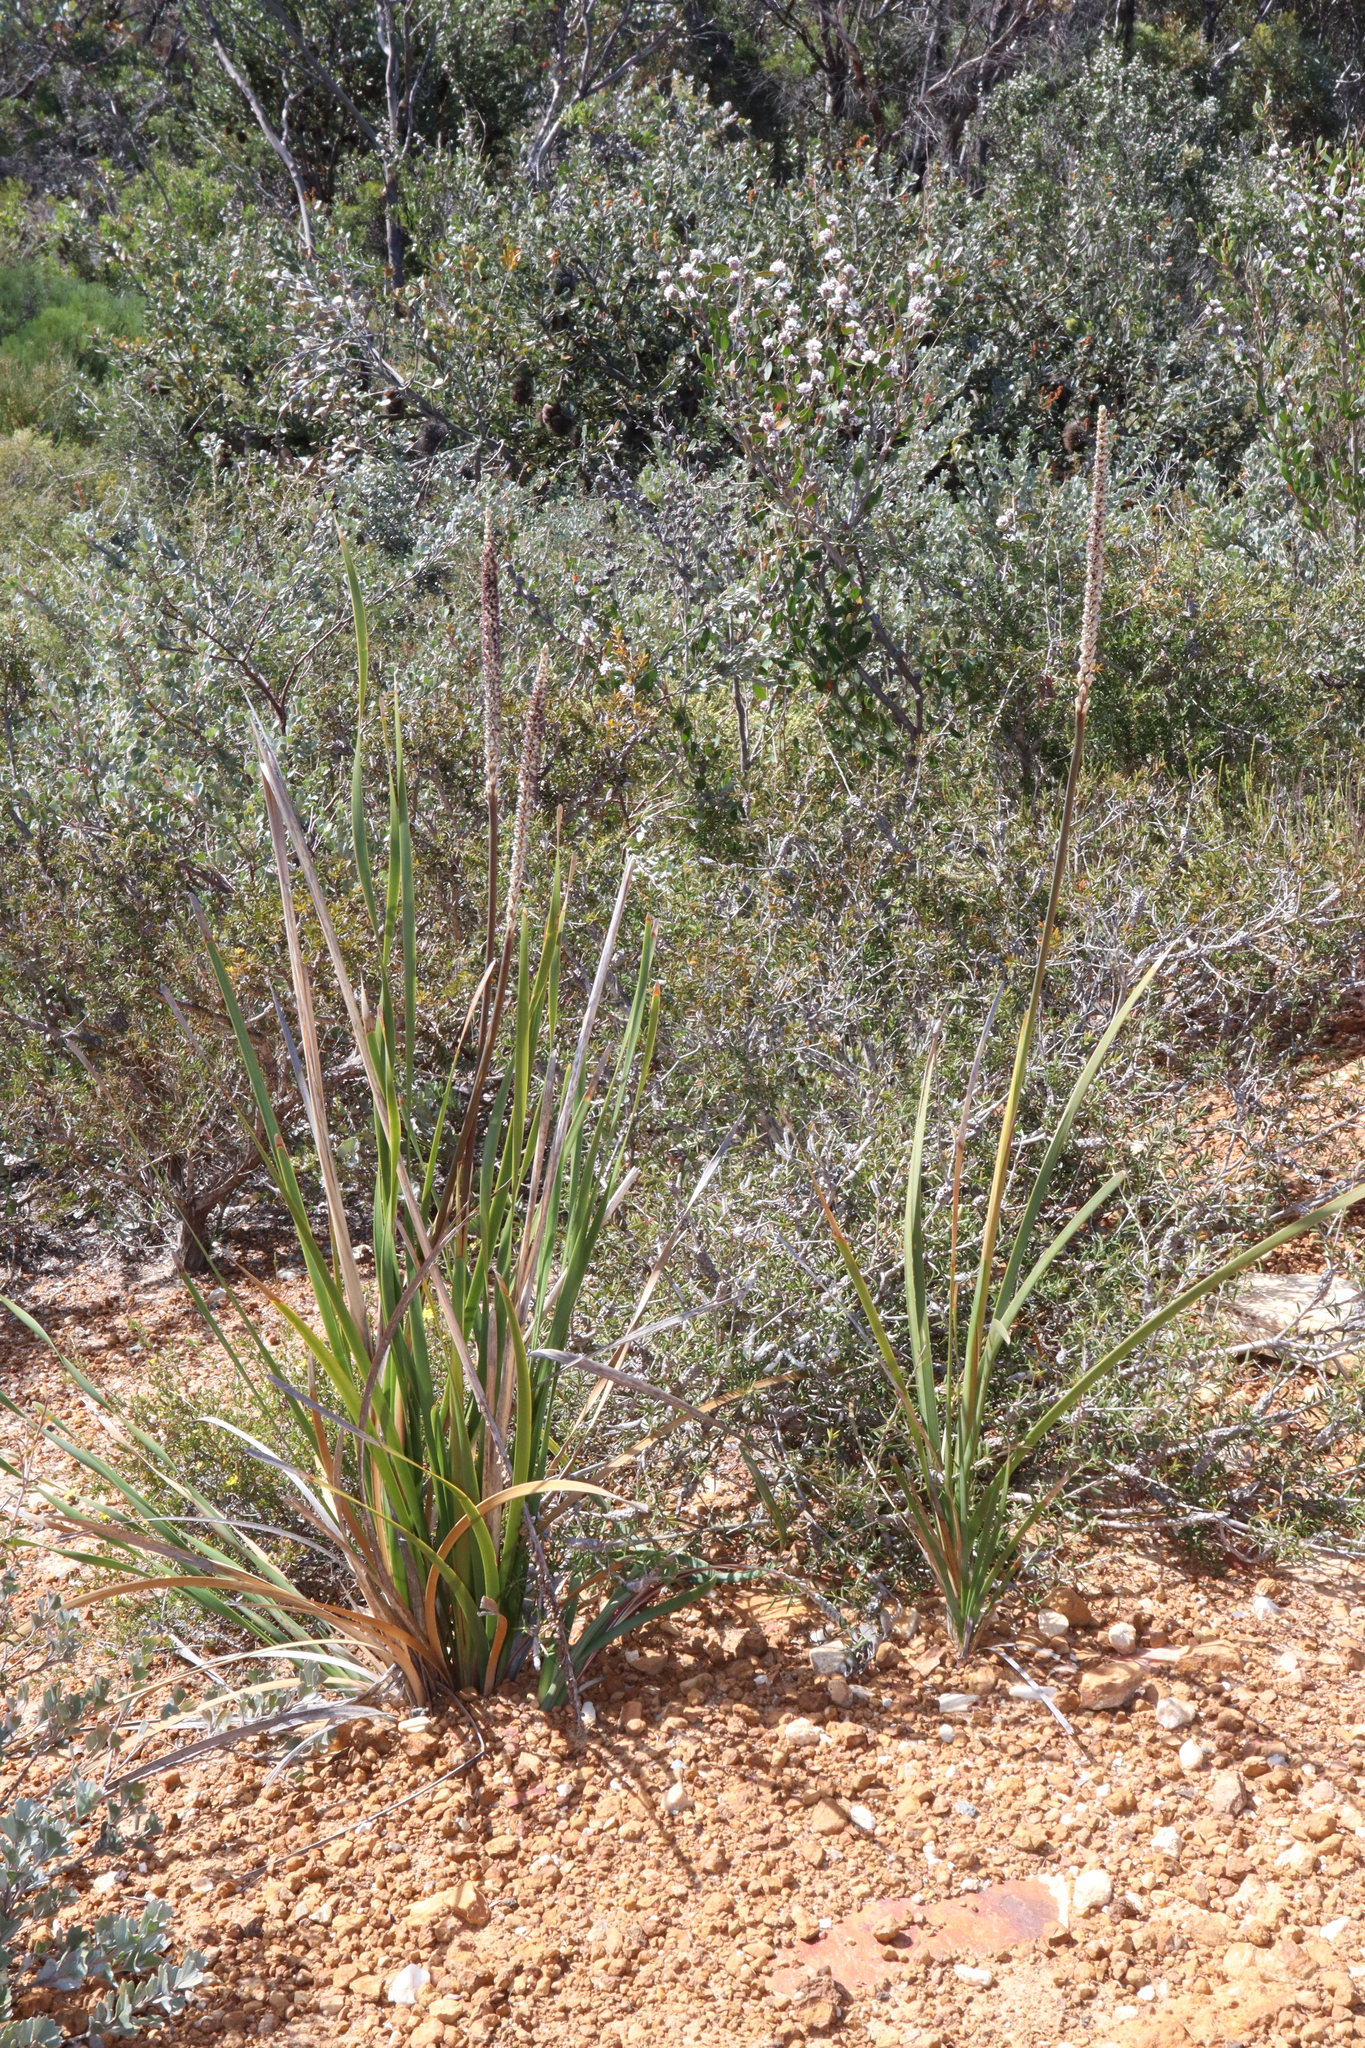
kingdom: Plantae
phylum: Tracheophyta
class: Liliopsida
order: Asparagales
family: Asparagaceae
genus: Lomandra
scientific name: Lomandra hastilis
